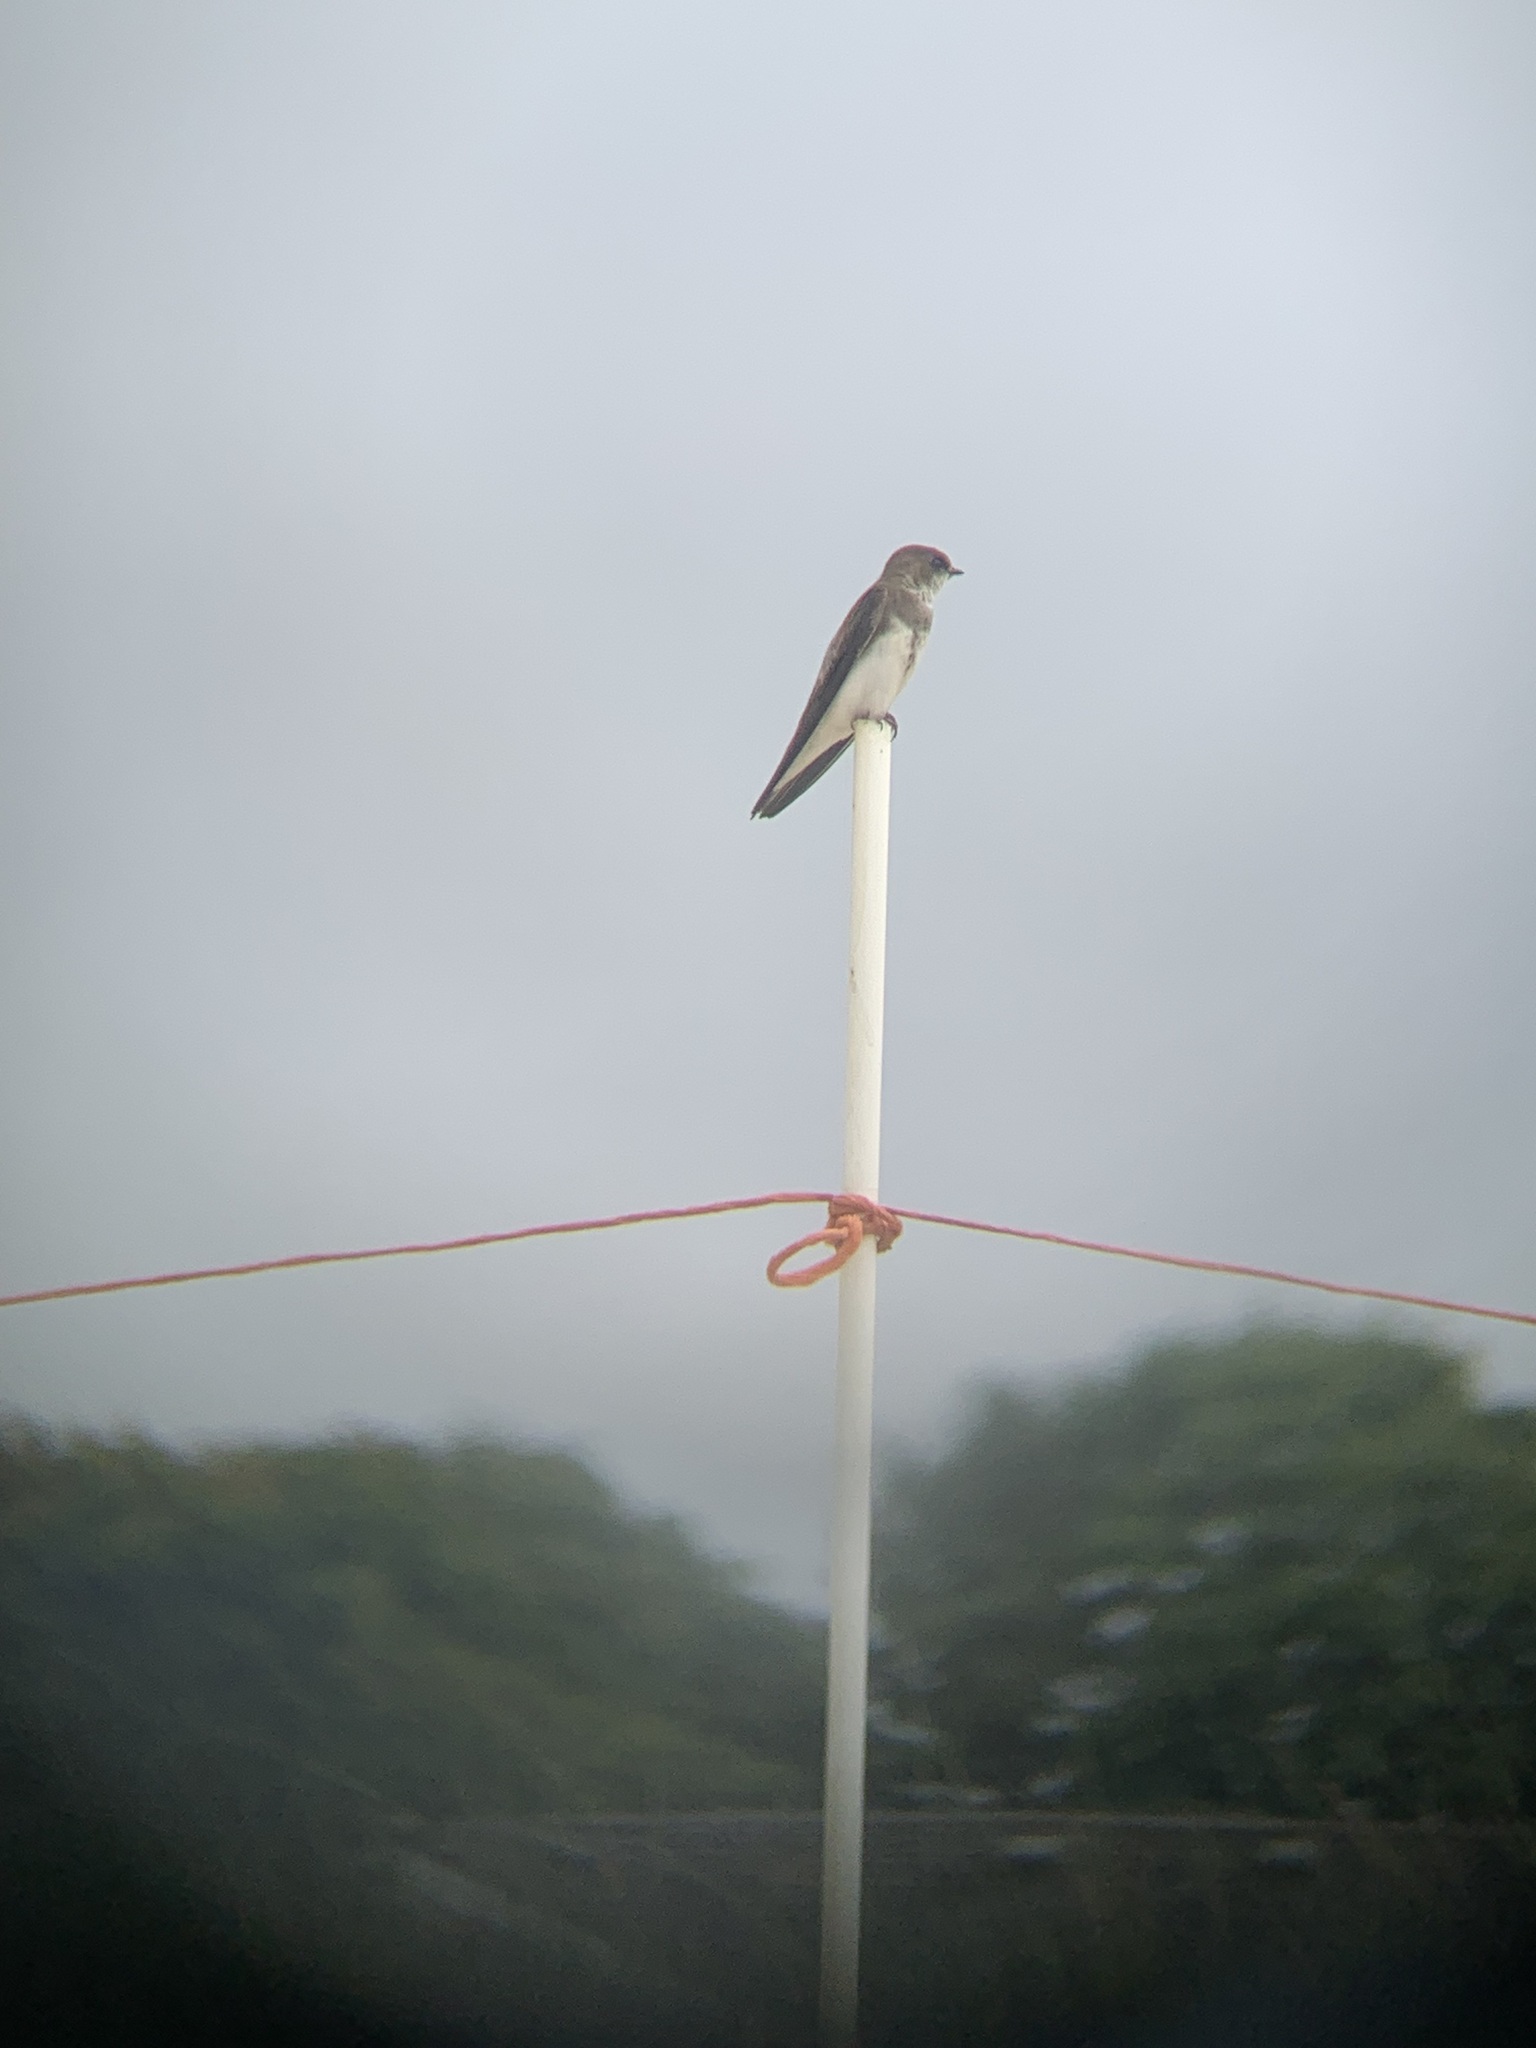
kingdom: Animalia
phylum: Chordata
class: Aves
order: Passeriformes
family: Hirundinidae
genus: Riparia
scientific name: Riparia riparia
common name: Sand martin
